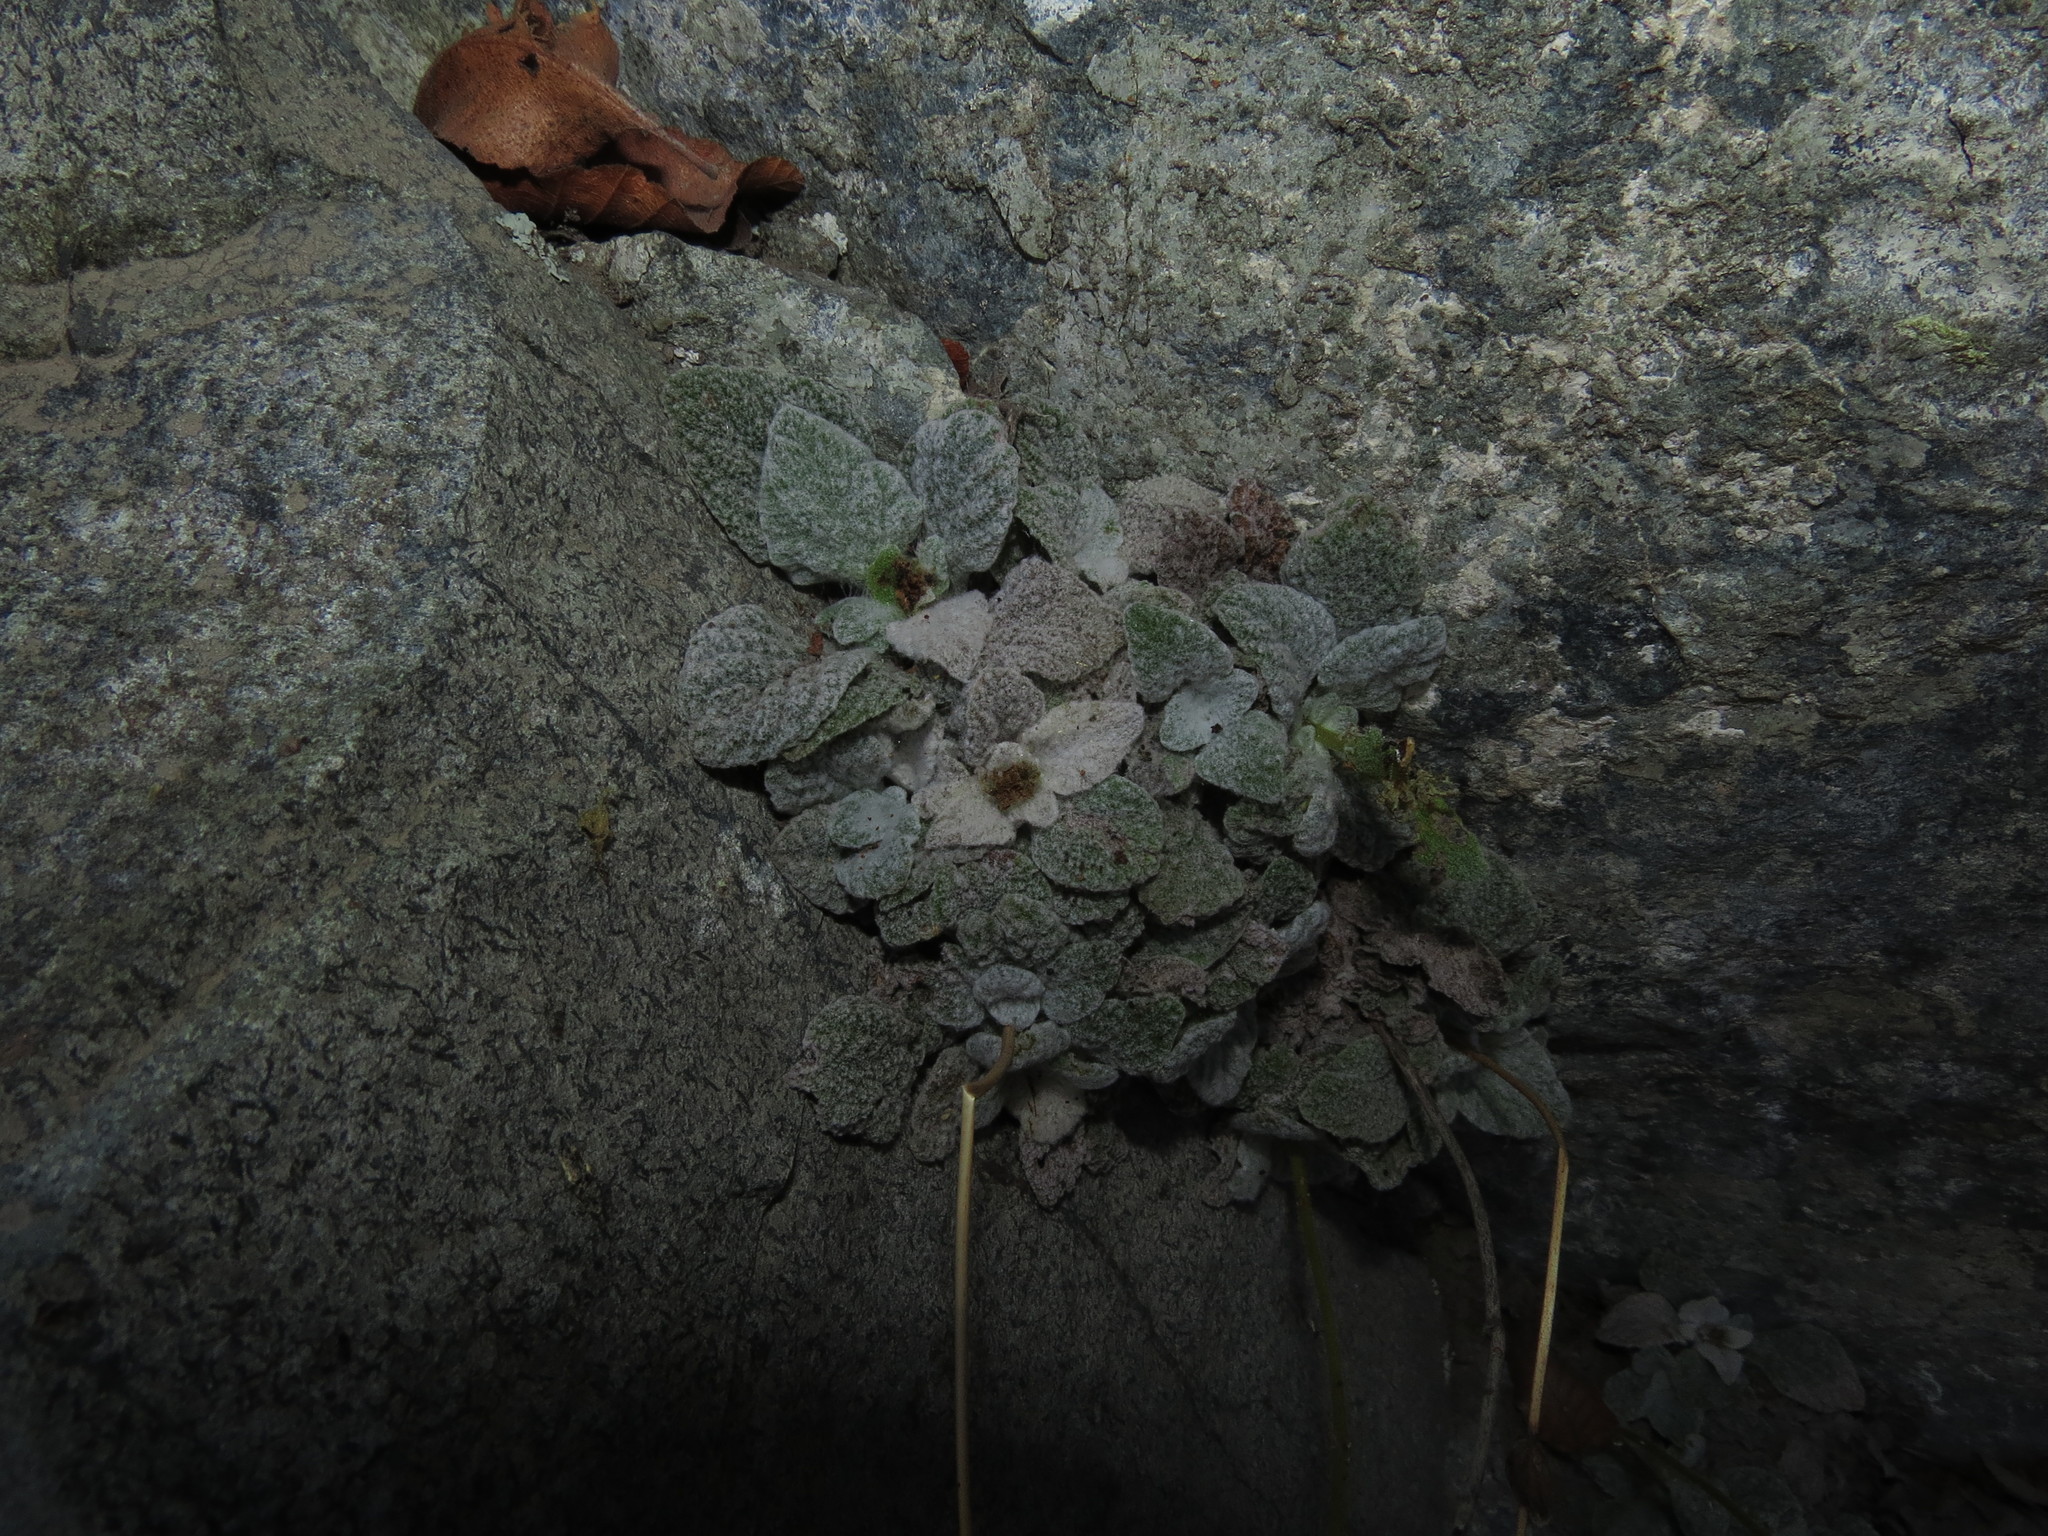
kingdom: Plantae
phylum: Tracheophyta
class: Magnoliopsida
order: Lamiales
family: Calceolariaceae
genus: Calceolaria
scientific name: Calceolaria campanae
